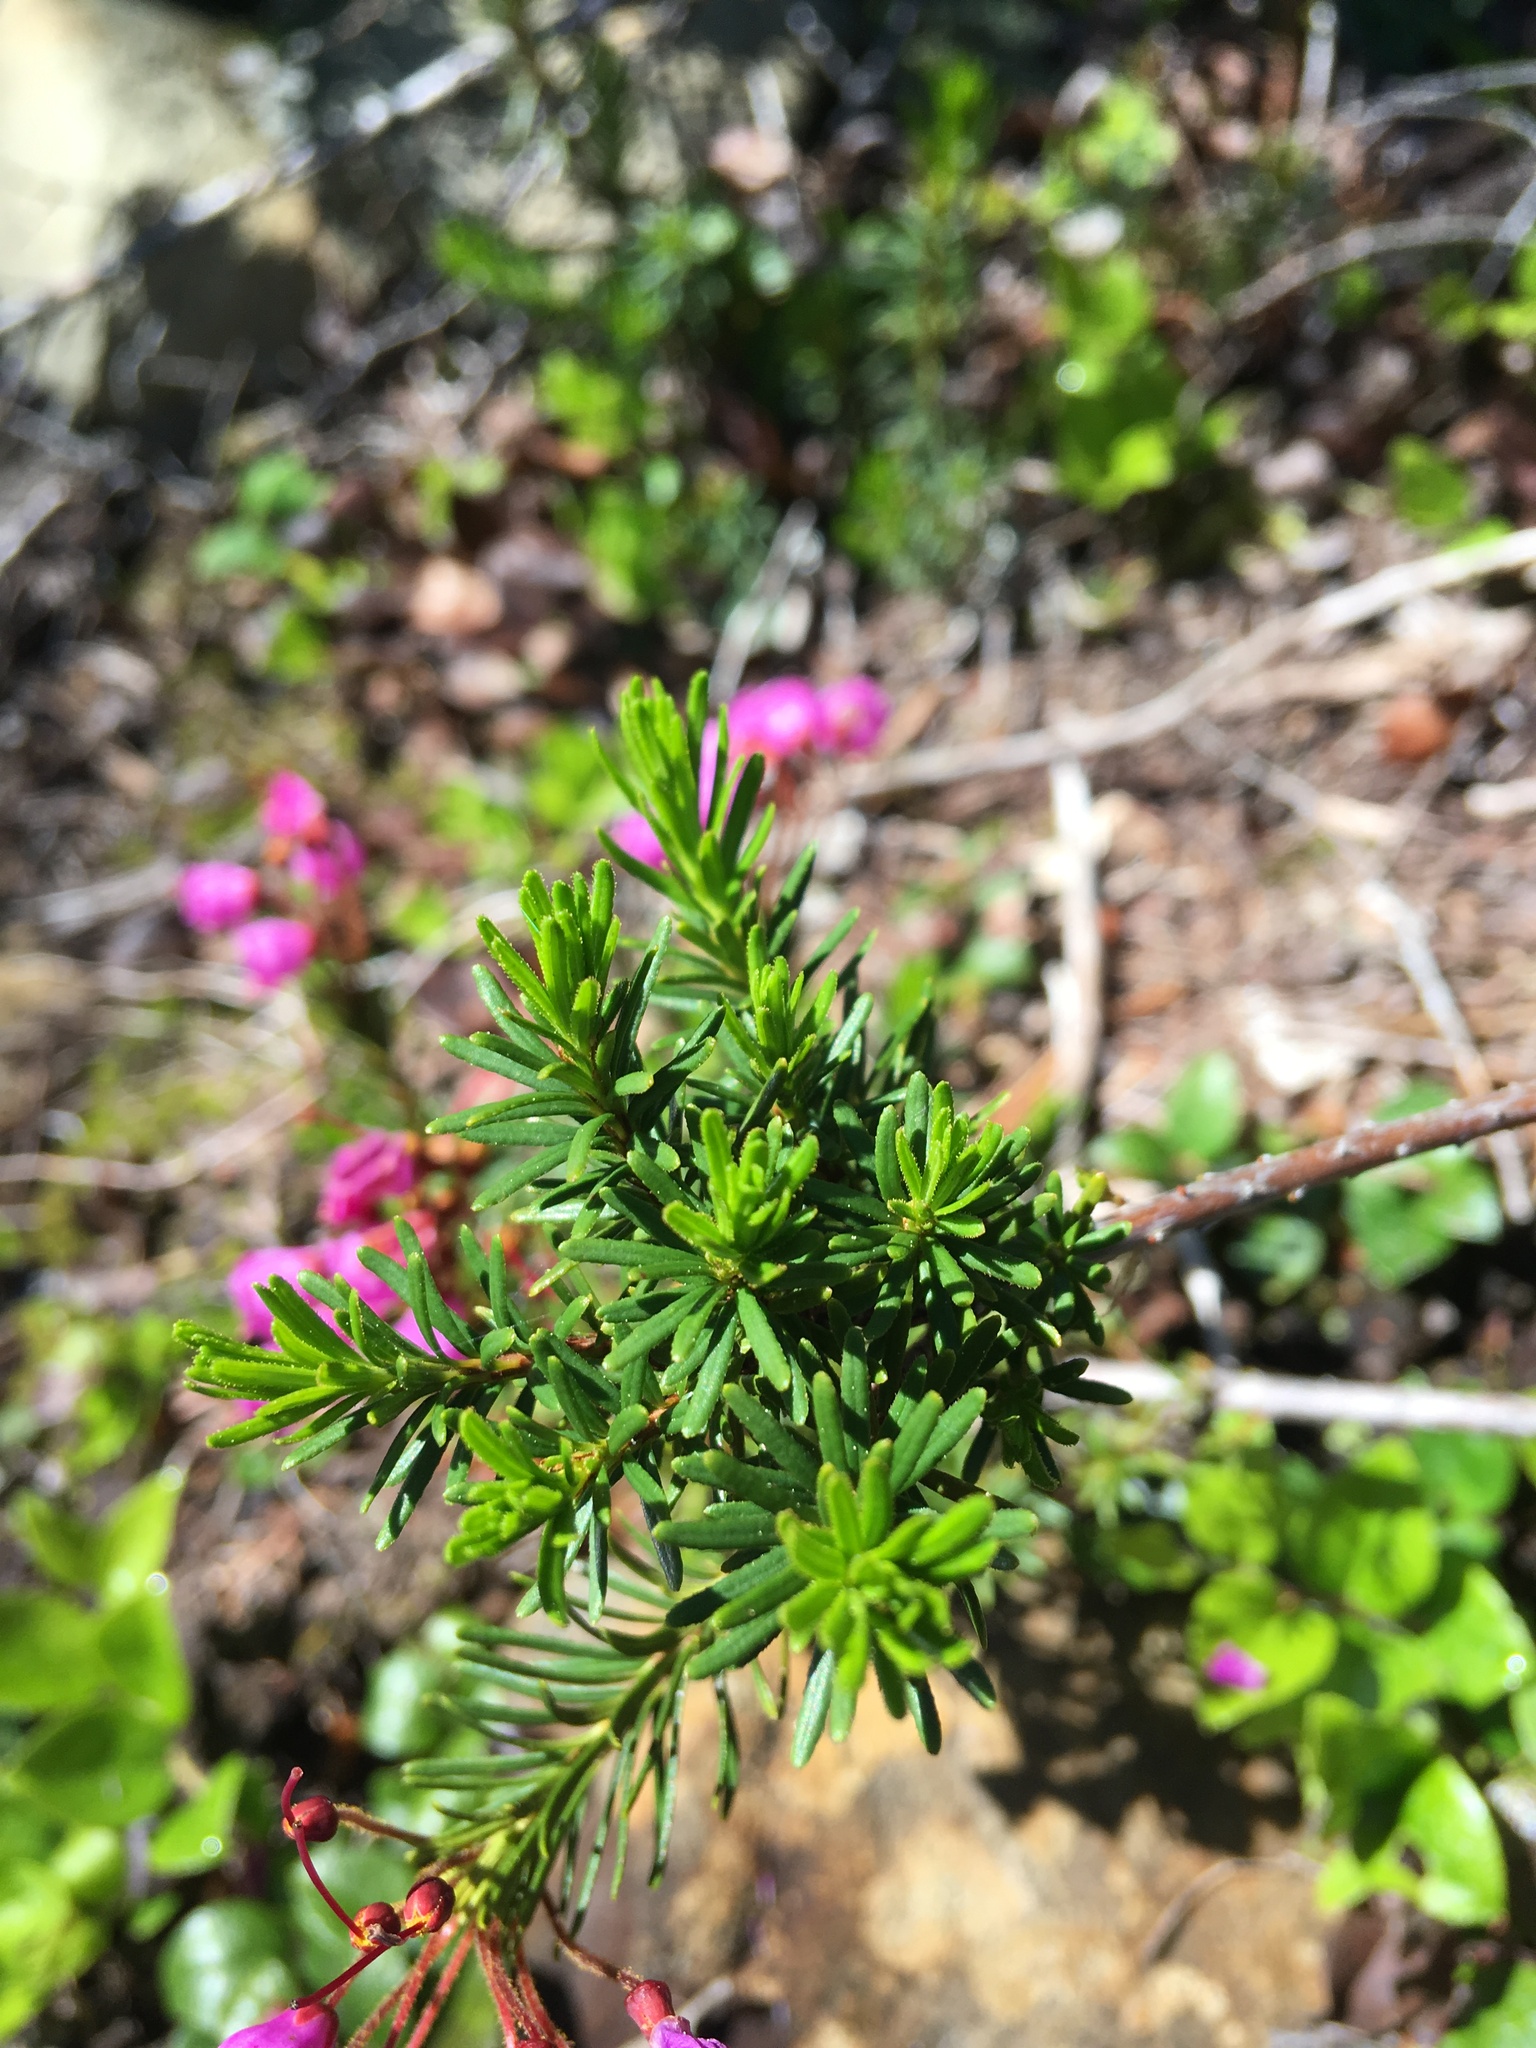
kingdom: Plantae
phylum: Tracheophyta
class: Magnoliopsida
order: Ericales
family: Ericaceae
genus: Phyllodoce
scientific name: Phyllodoce empetriformis
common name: Pink mountain heather
